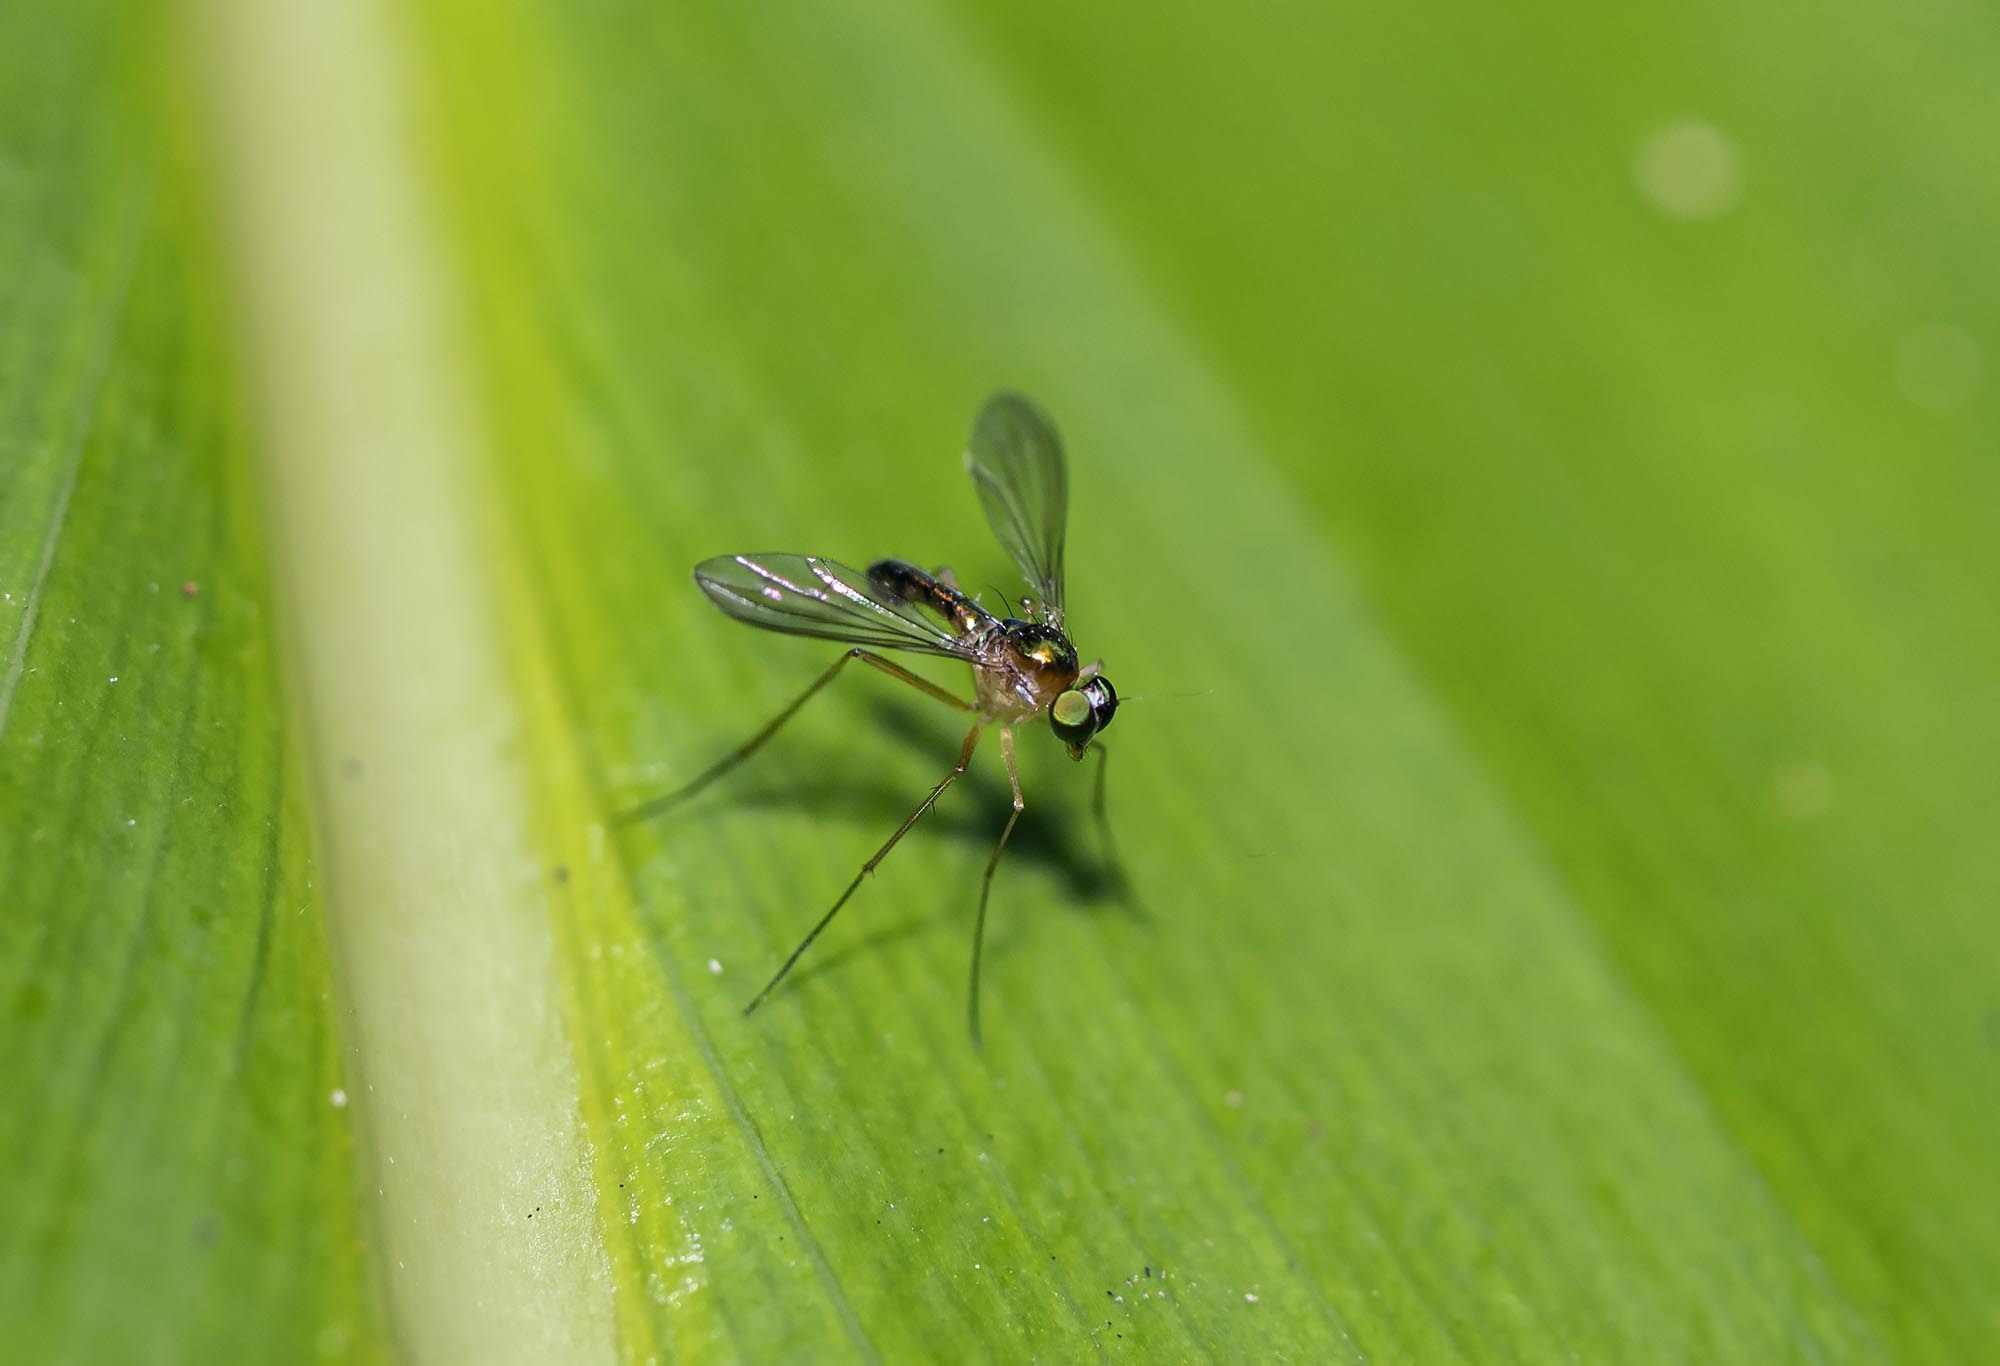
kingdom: Animalia
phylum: Arthropoda
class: Insecta
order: Diptera
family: Dolichopodidae
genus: Austrosciapus
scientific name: Austrosciapus ravenshoensis
